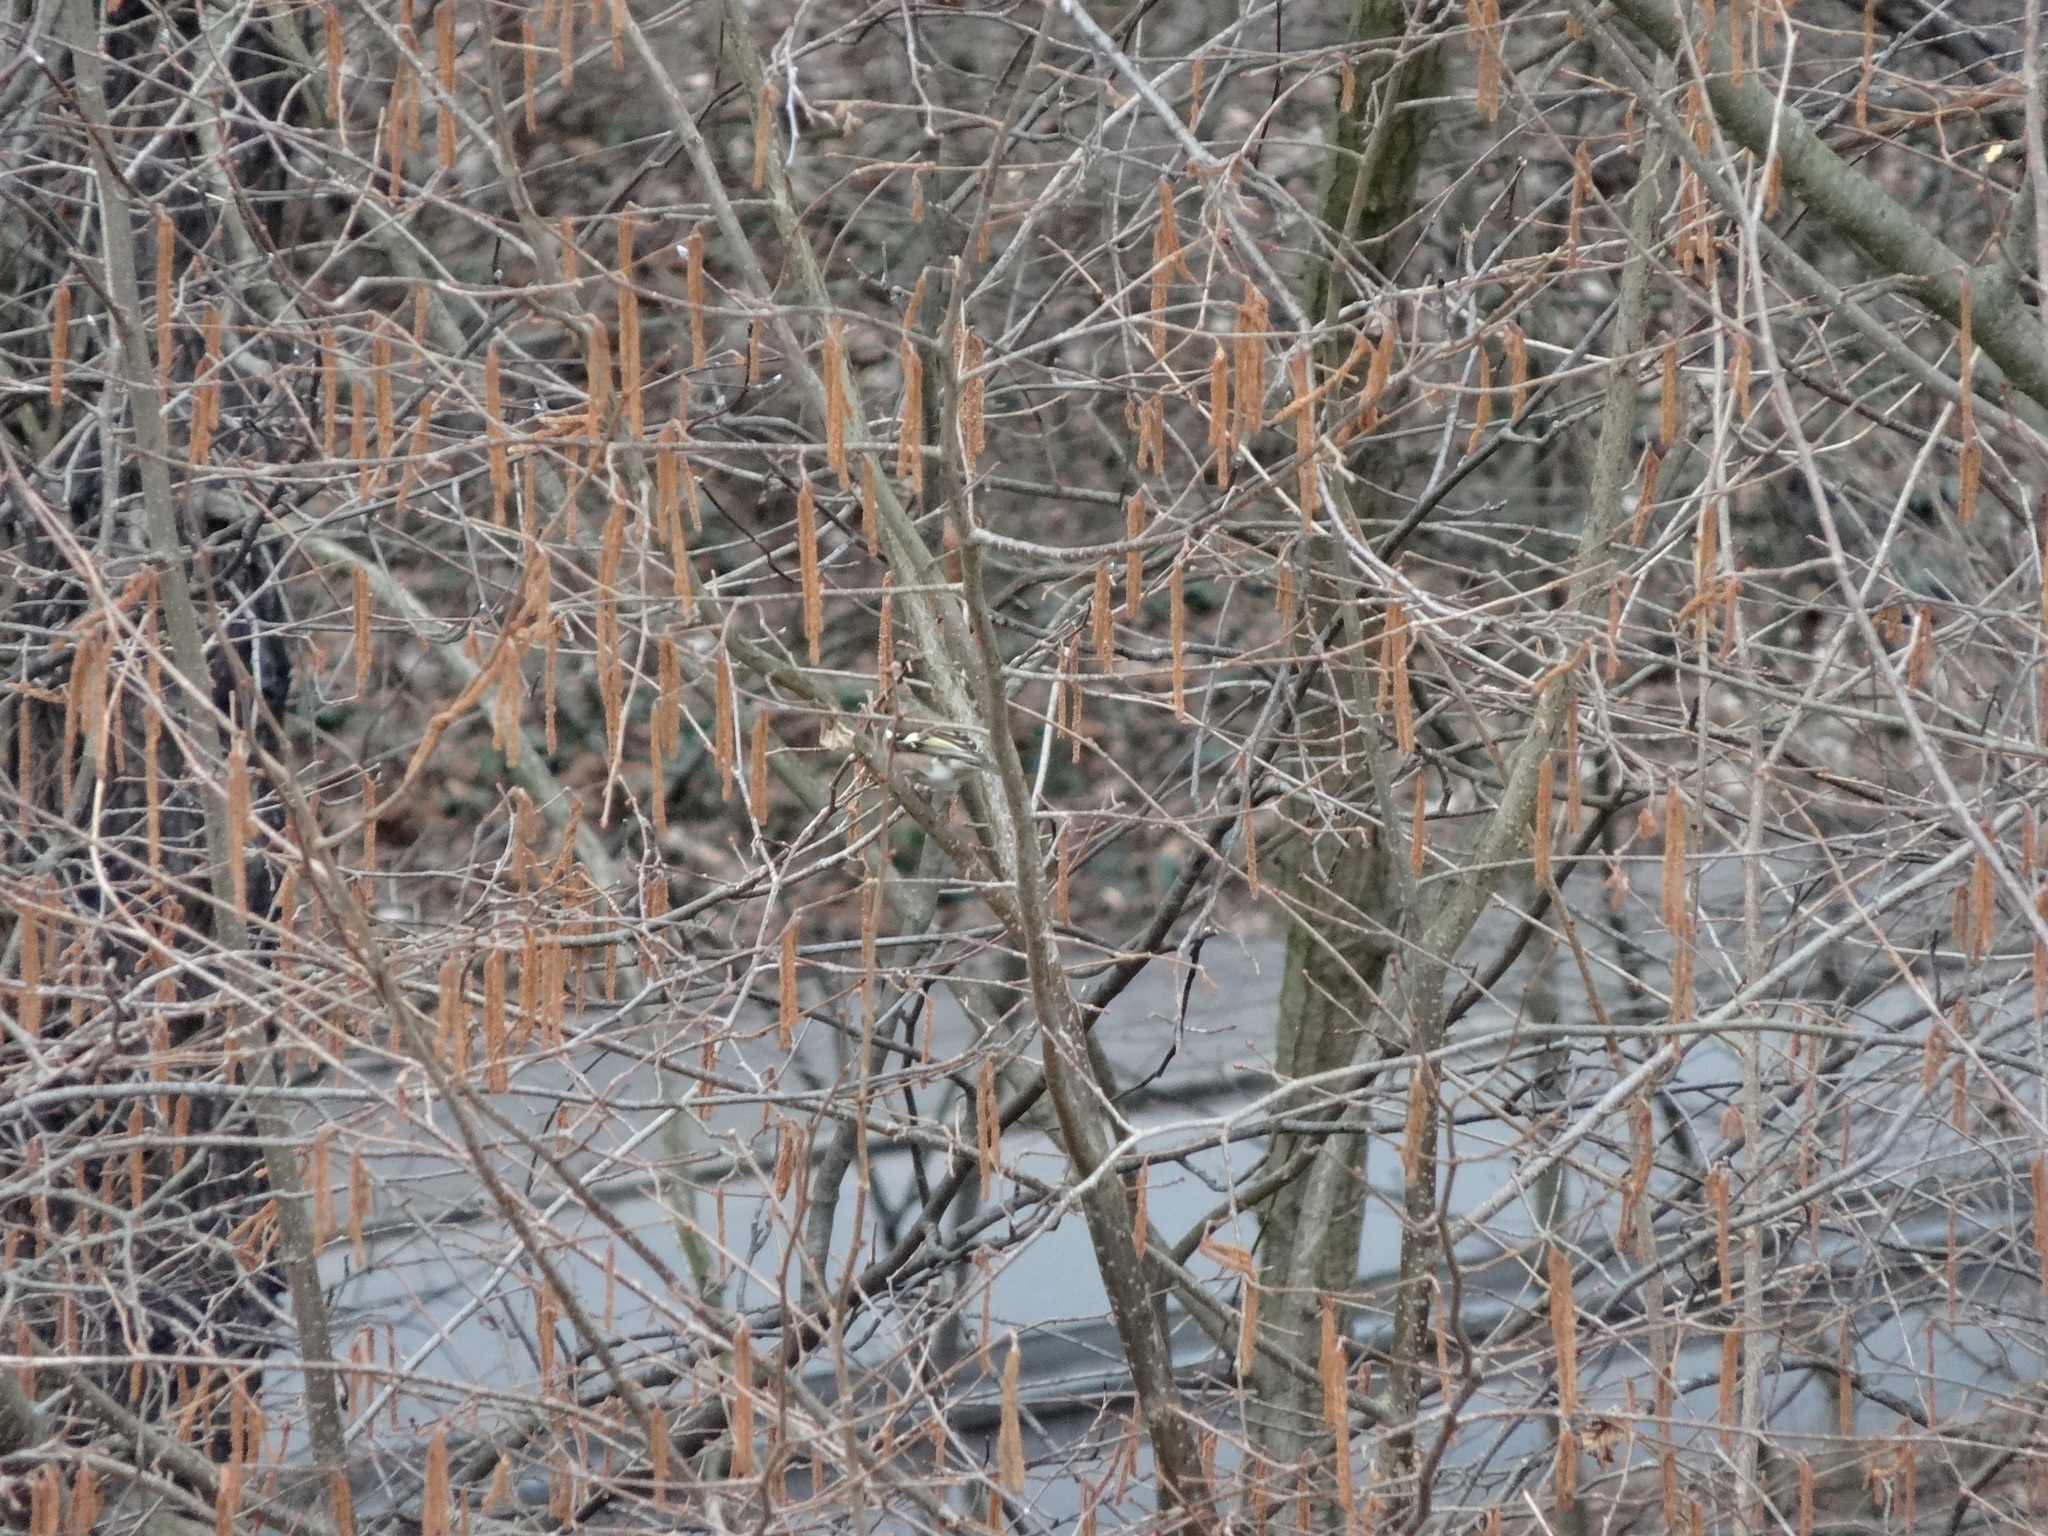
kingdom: Animalia
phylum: Chordata
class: Aves
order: Passeriformes
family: Fringillidae
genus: Fringilla
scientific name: Fringilla coelebs
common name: Common chaffinch
